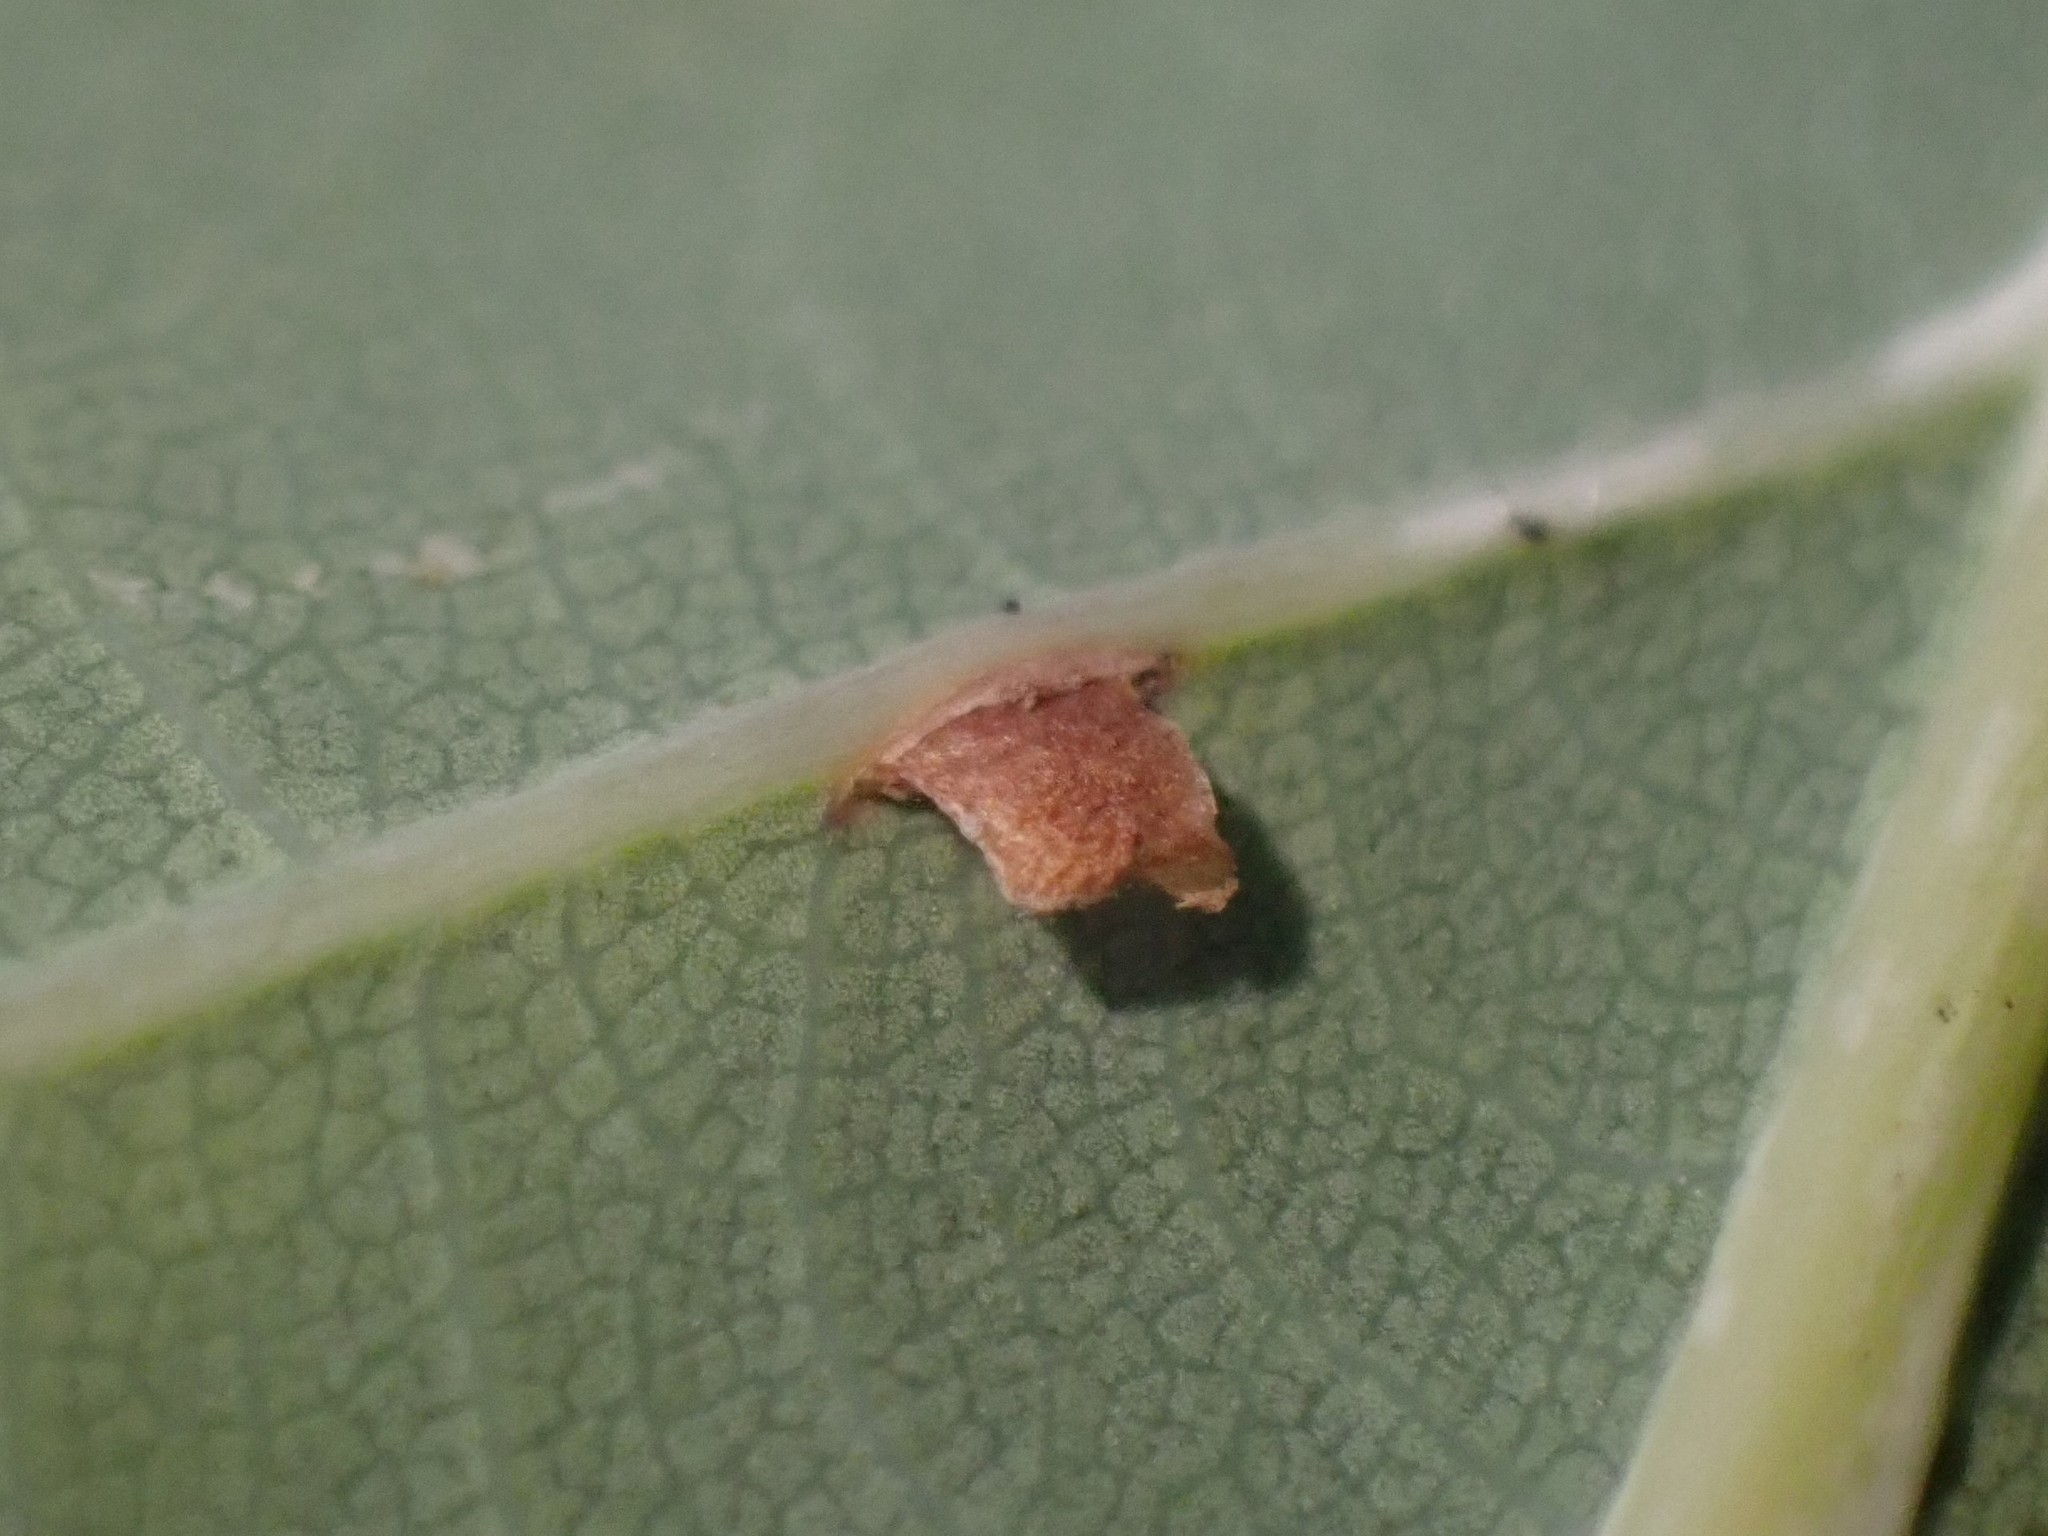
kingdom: Animalia
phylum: Arthropoda
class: Insecta
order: Hymenoptera
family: Cynipidae
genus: Neuroterus
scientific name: Neuroterus anthracinus
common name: Oyster gall
